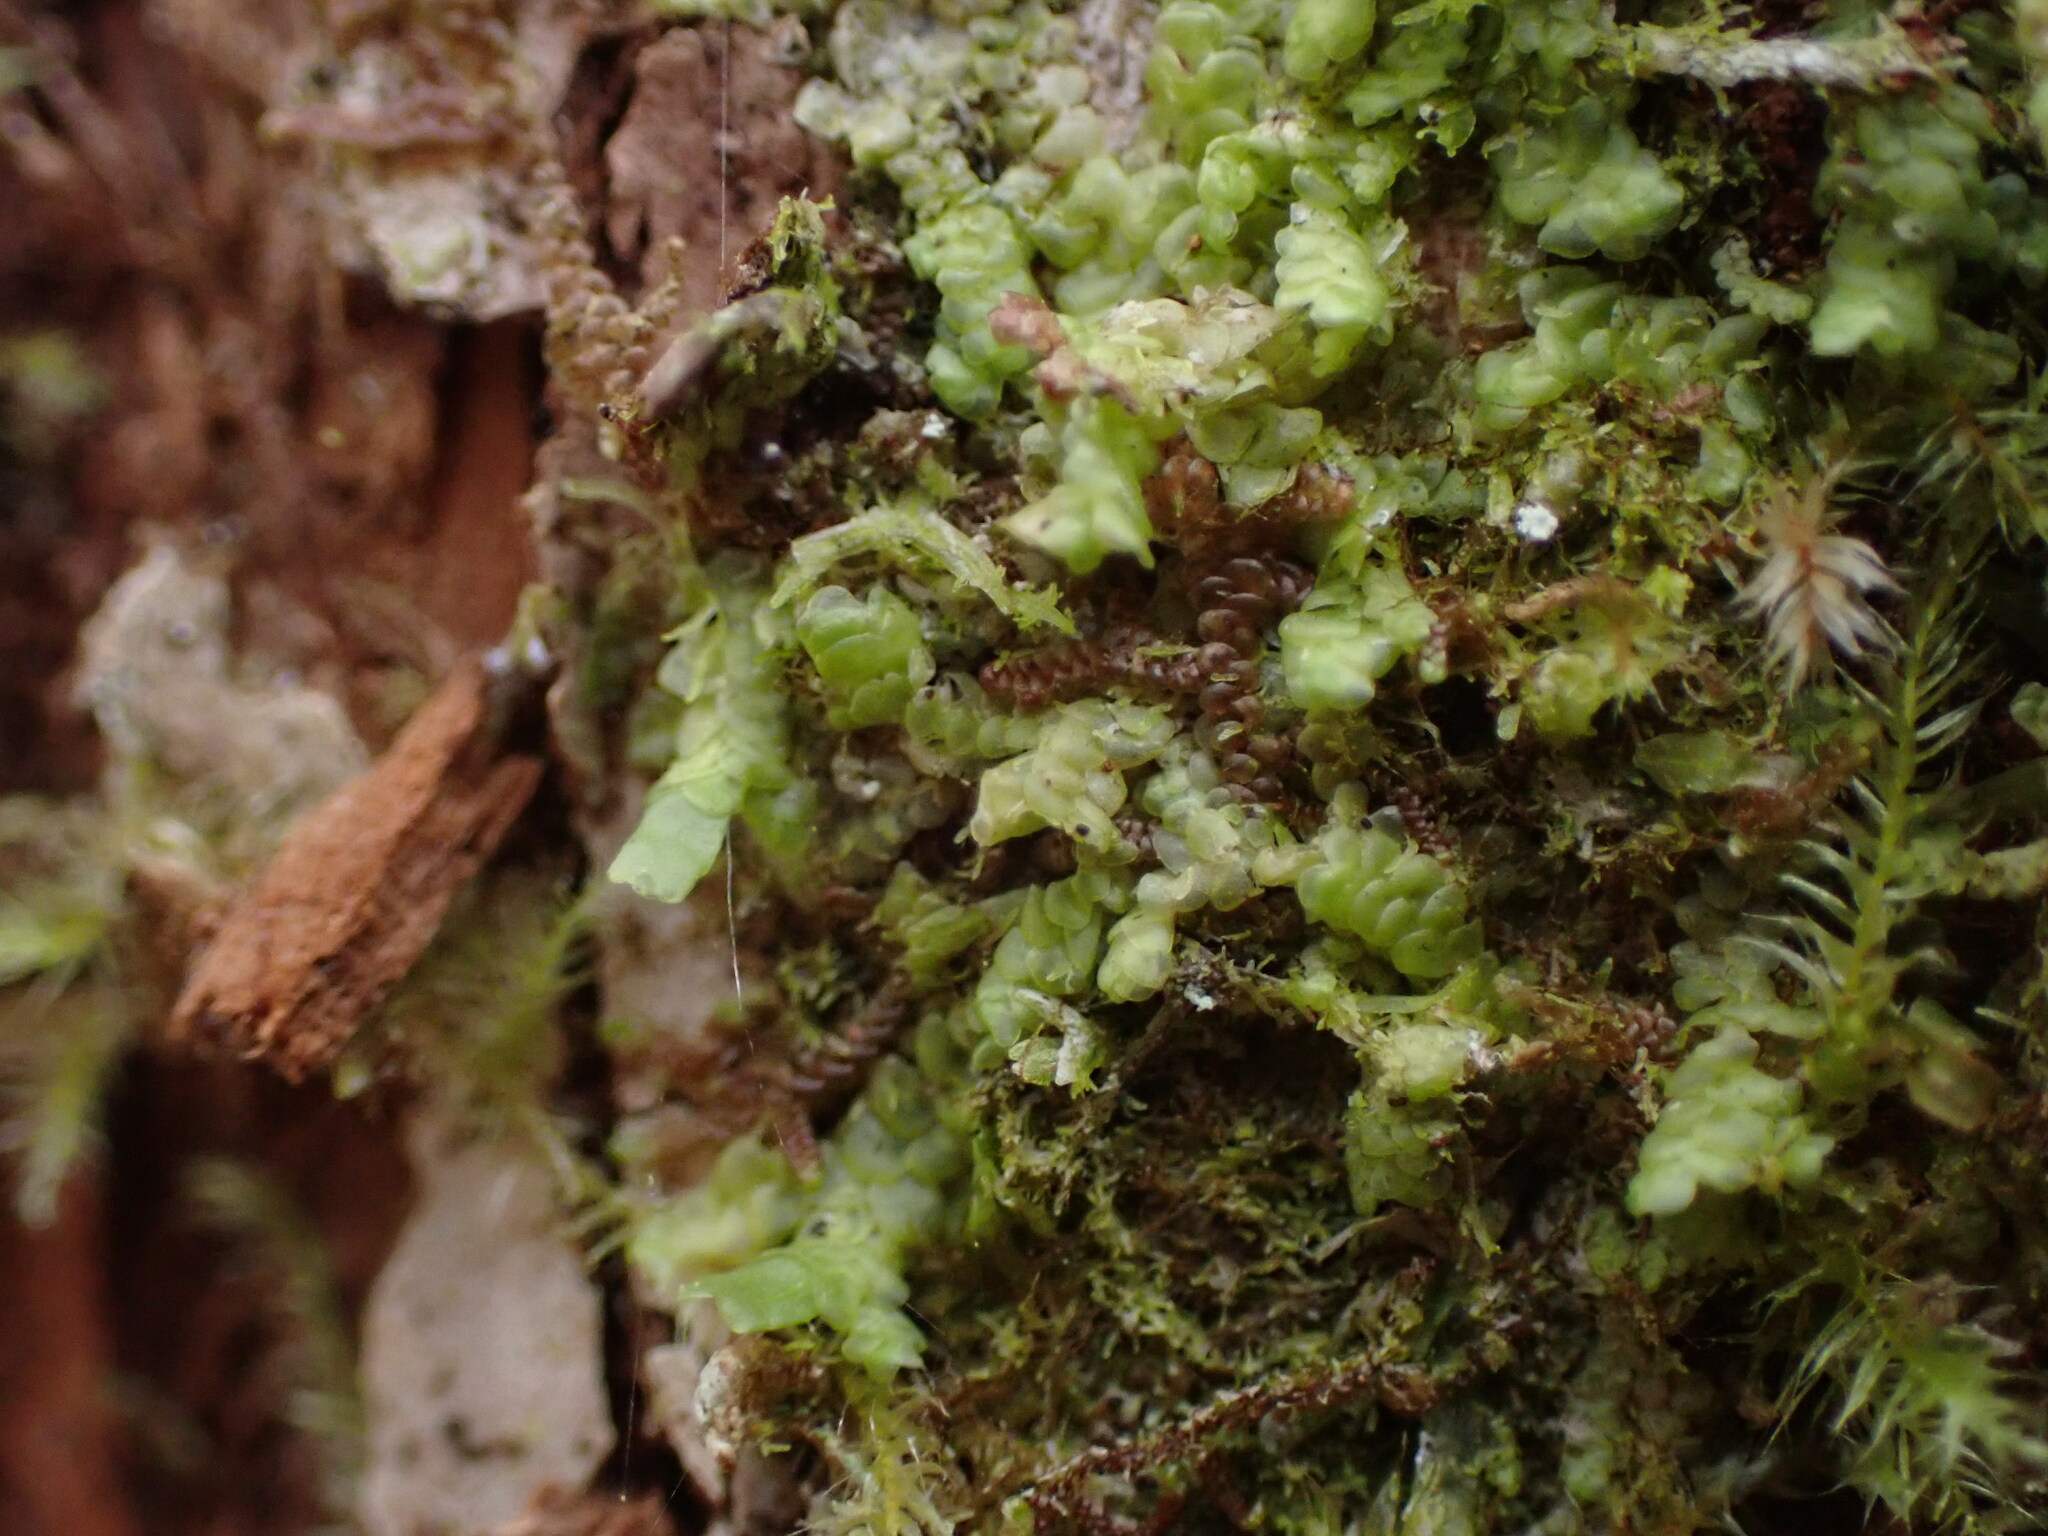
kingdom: Plantae
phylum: Marchantiophyta
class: Jungermanniopsida
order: Porellales
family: Radulaceae
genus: Radula
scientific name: Radula complanata
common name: Flat-leaved scalewort
